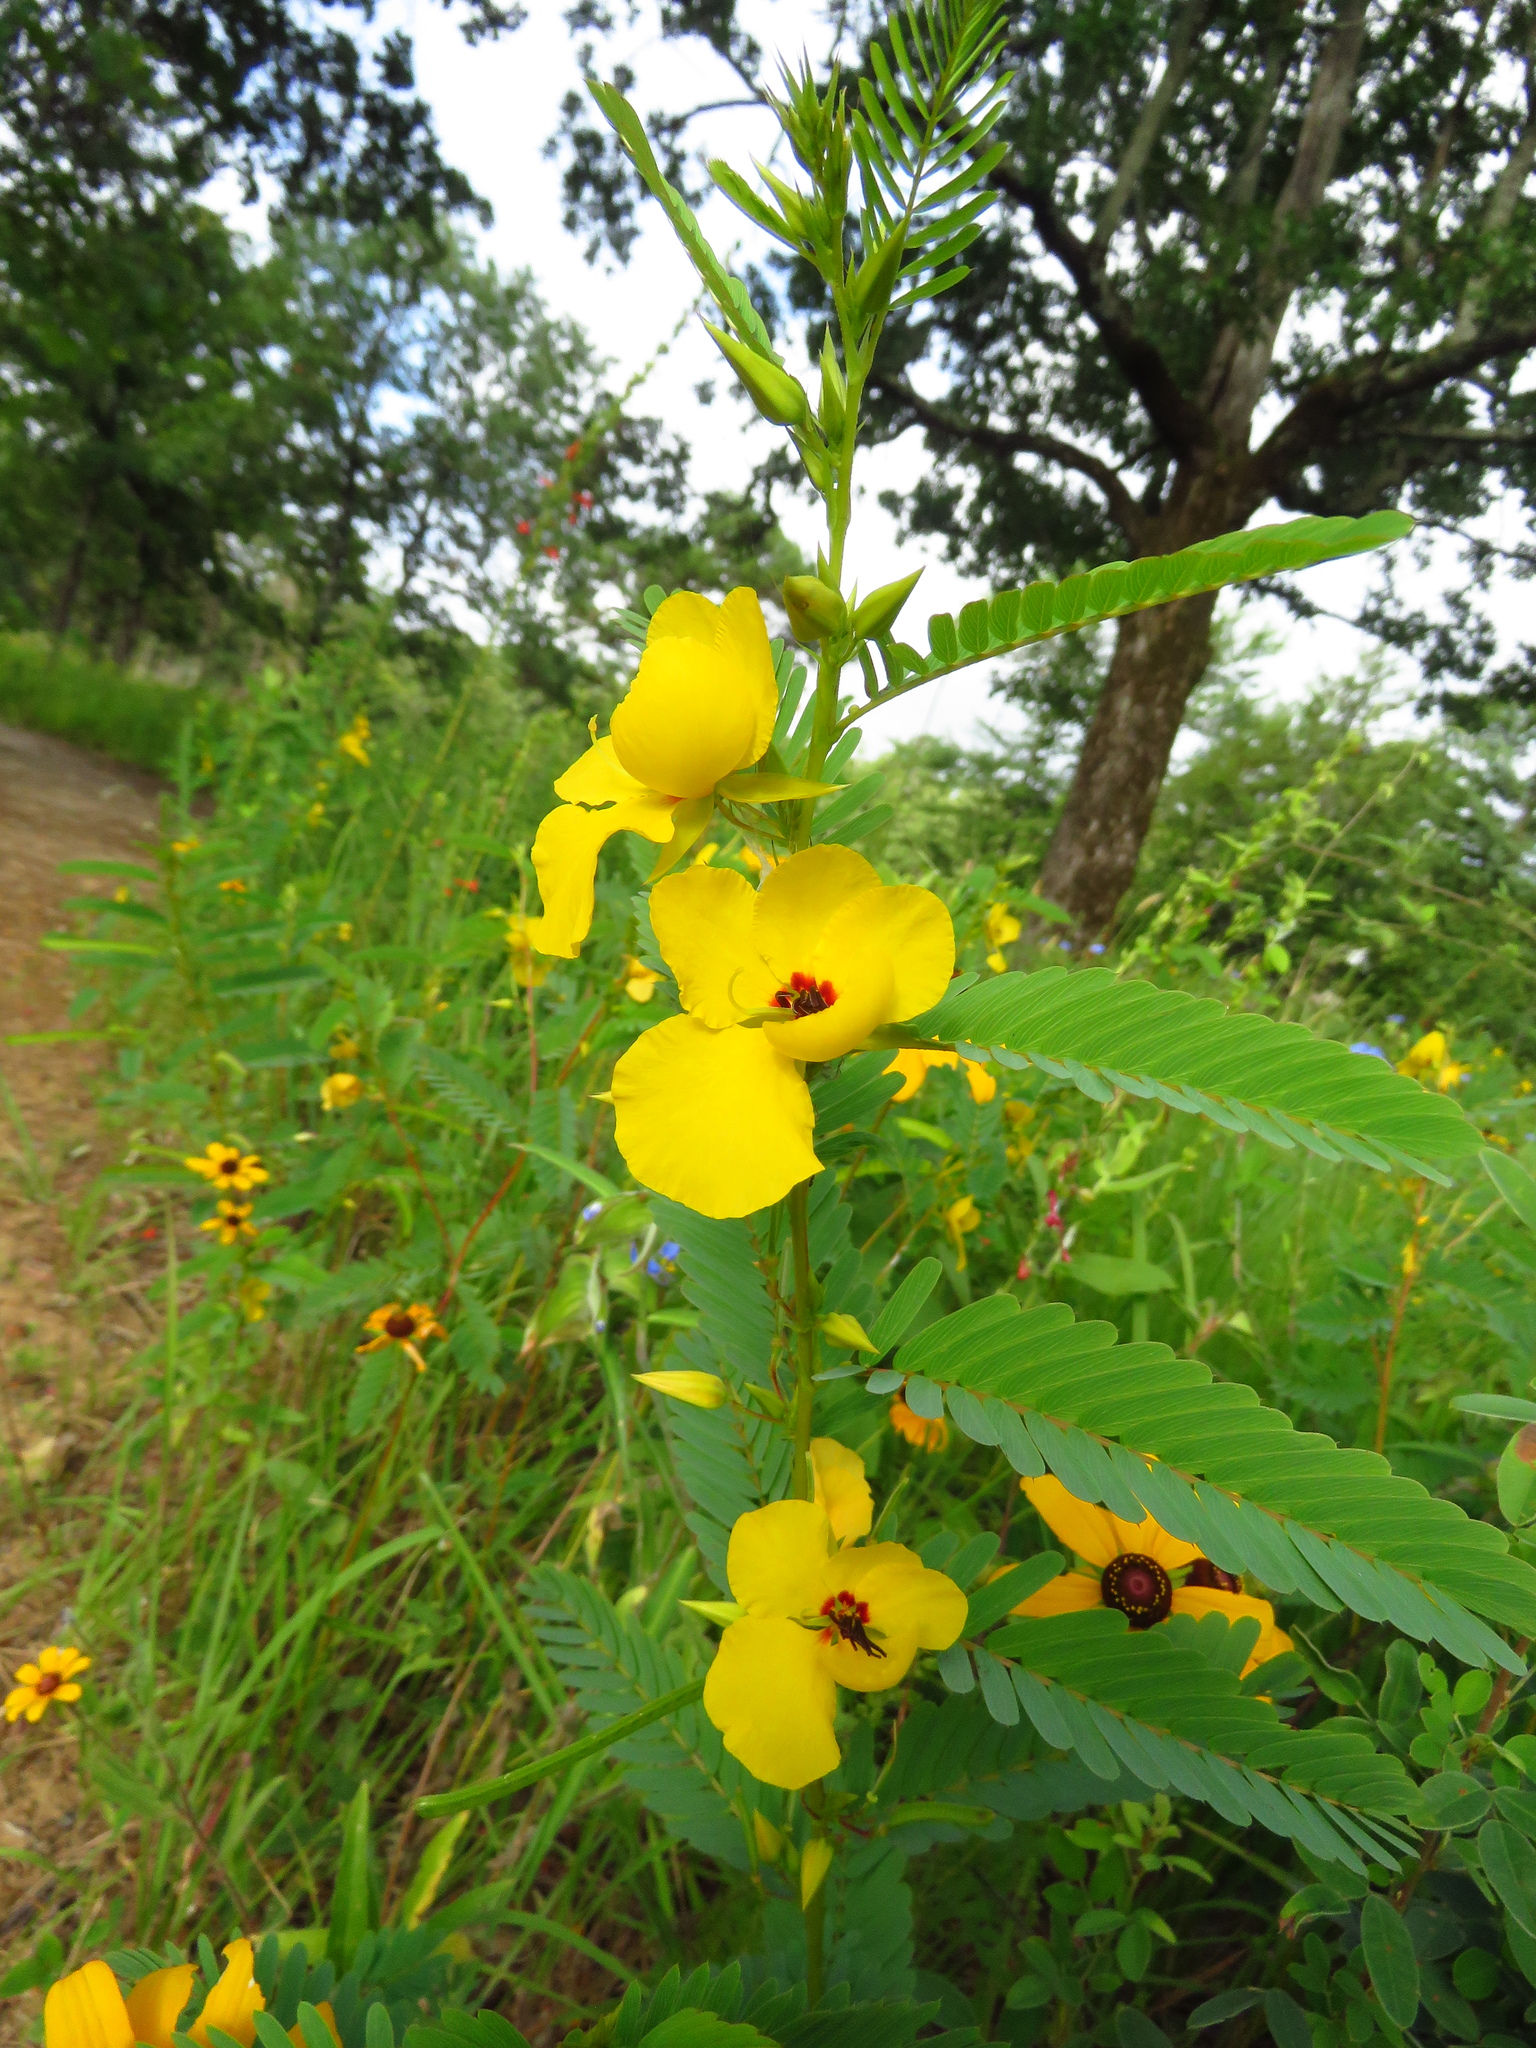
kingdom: Plantae
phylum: Tracheophyta
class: Magnoliopsida
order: Fabales
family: Fabaceae
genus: Chamaecrista
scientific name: Chamaecrista fasciculata
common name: Golden cassia
